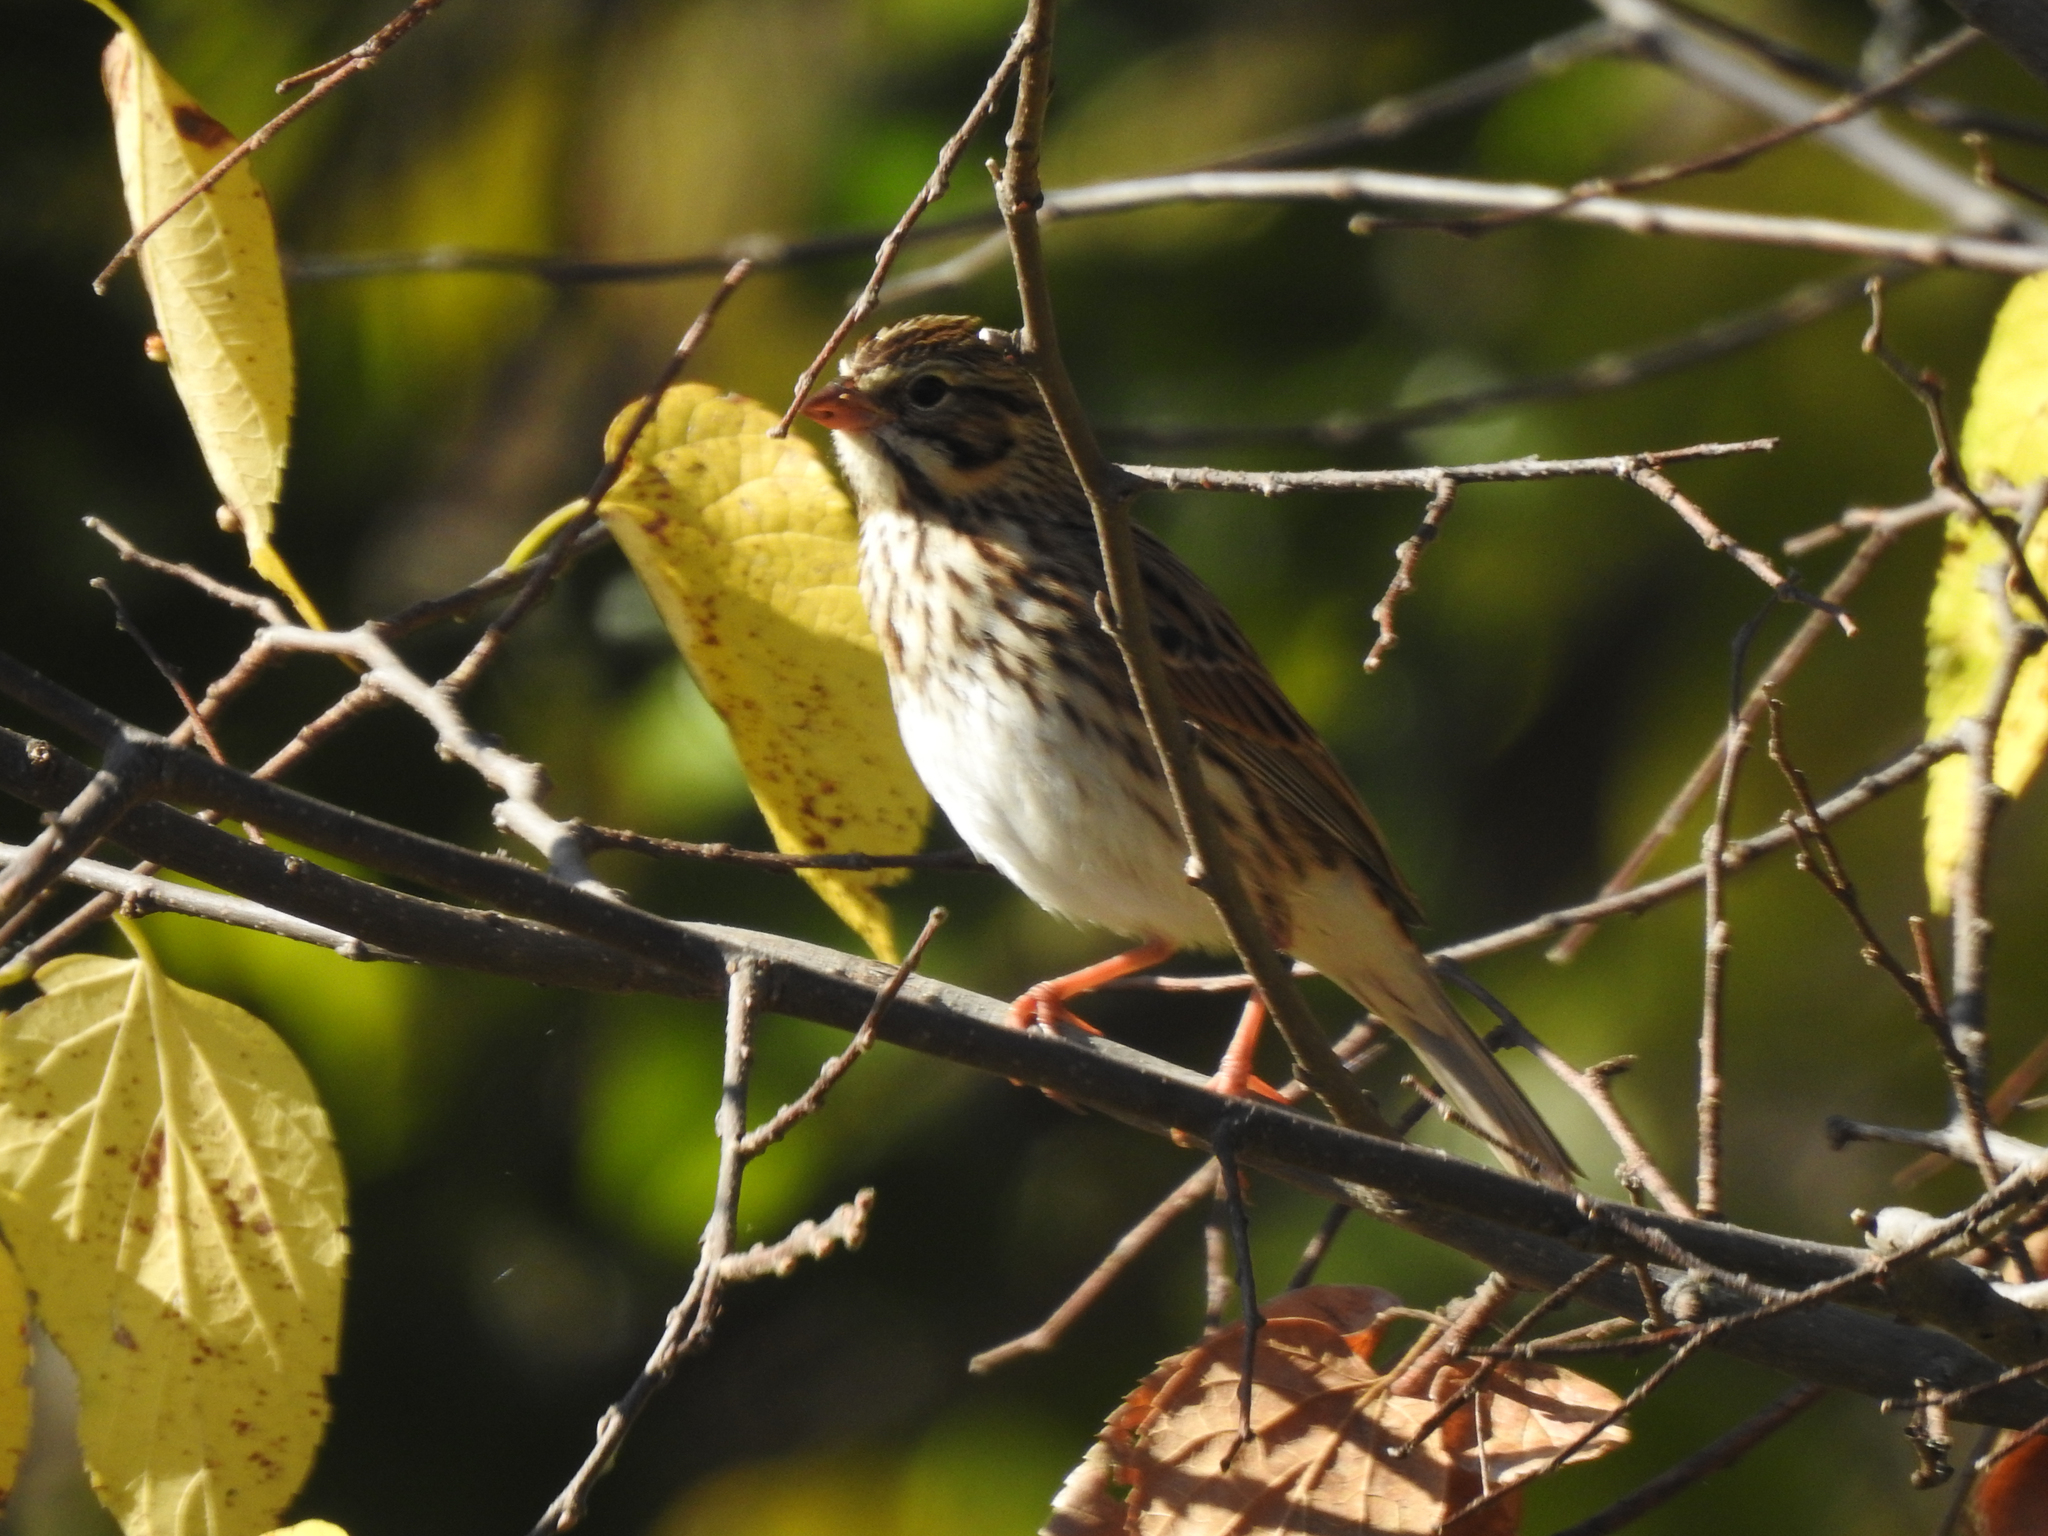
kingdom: Animalia
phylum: Chordata
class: Aves
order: Passeriformes
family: Passerellidae
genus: Passerculus
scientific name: Passerculus sandwichensis
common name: Savannah sparrow
